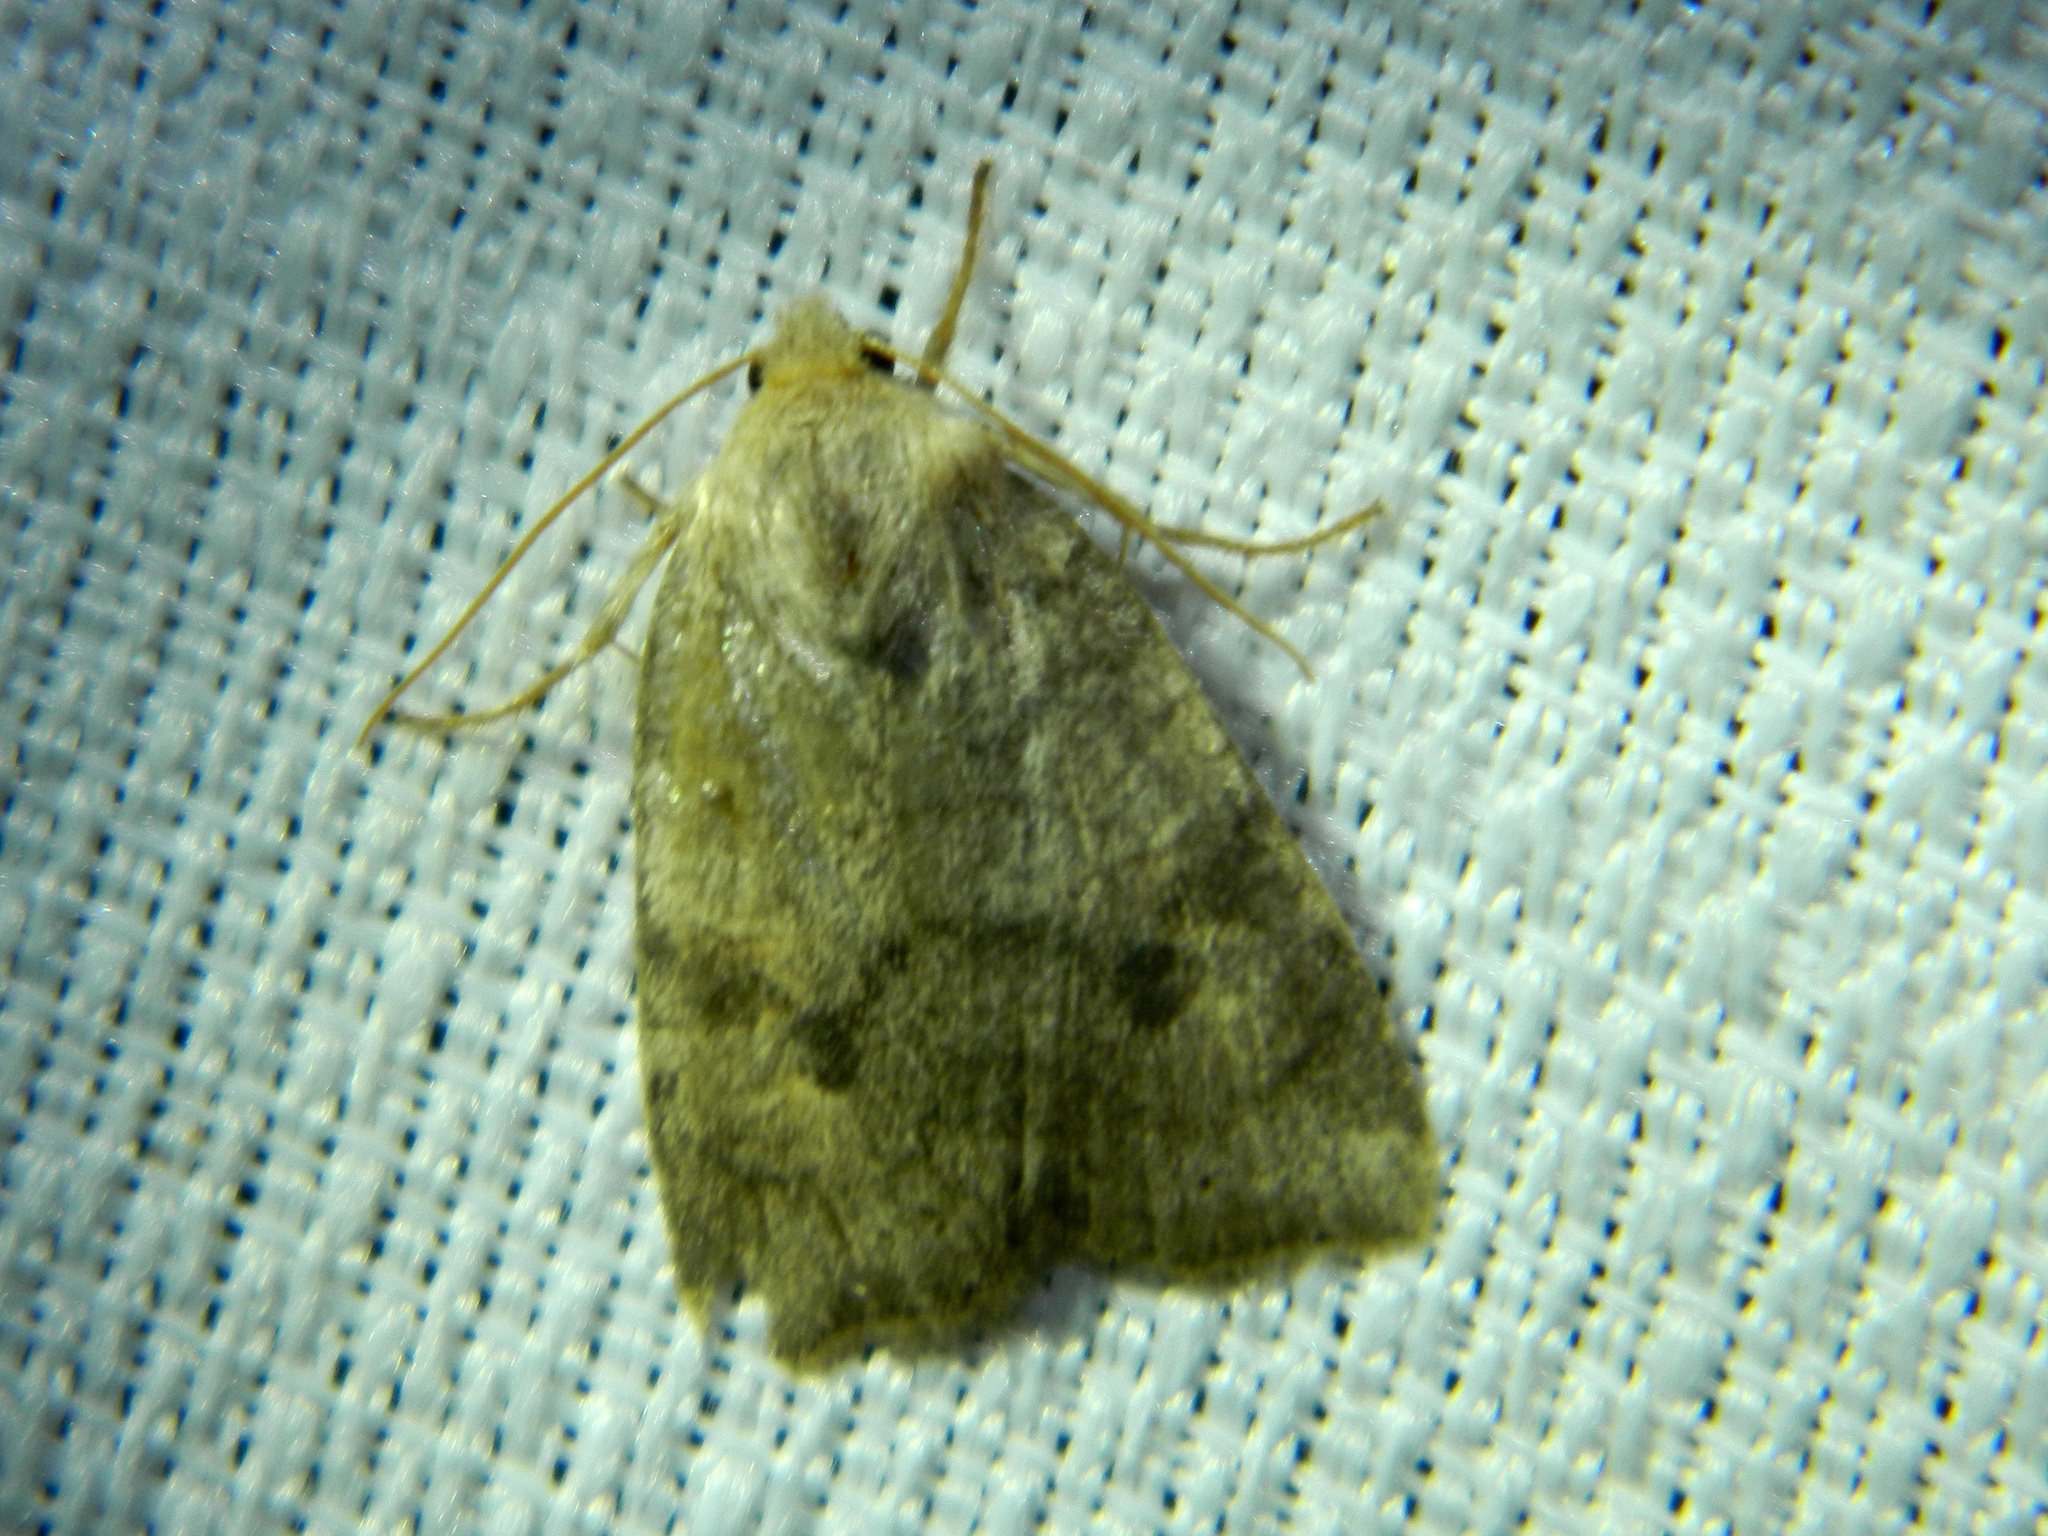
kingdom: Animalia
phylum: Arthropoda
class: Insecta
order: Lepidoptera
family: Noctuidae
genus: Anathix
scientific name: Anathix puta
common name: Puta sallow
